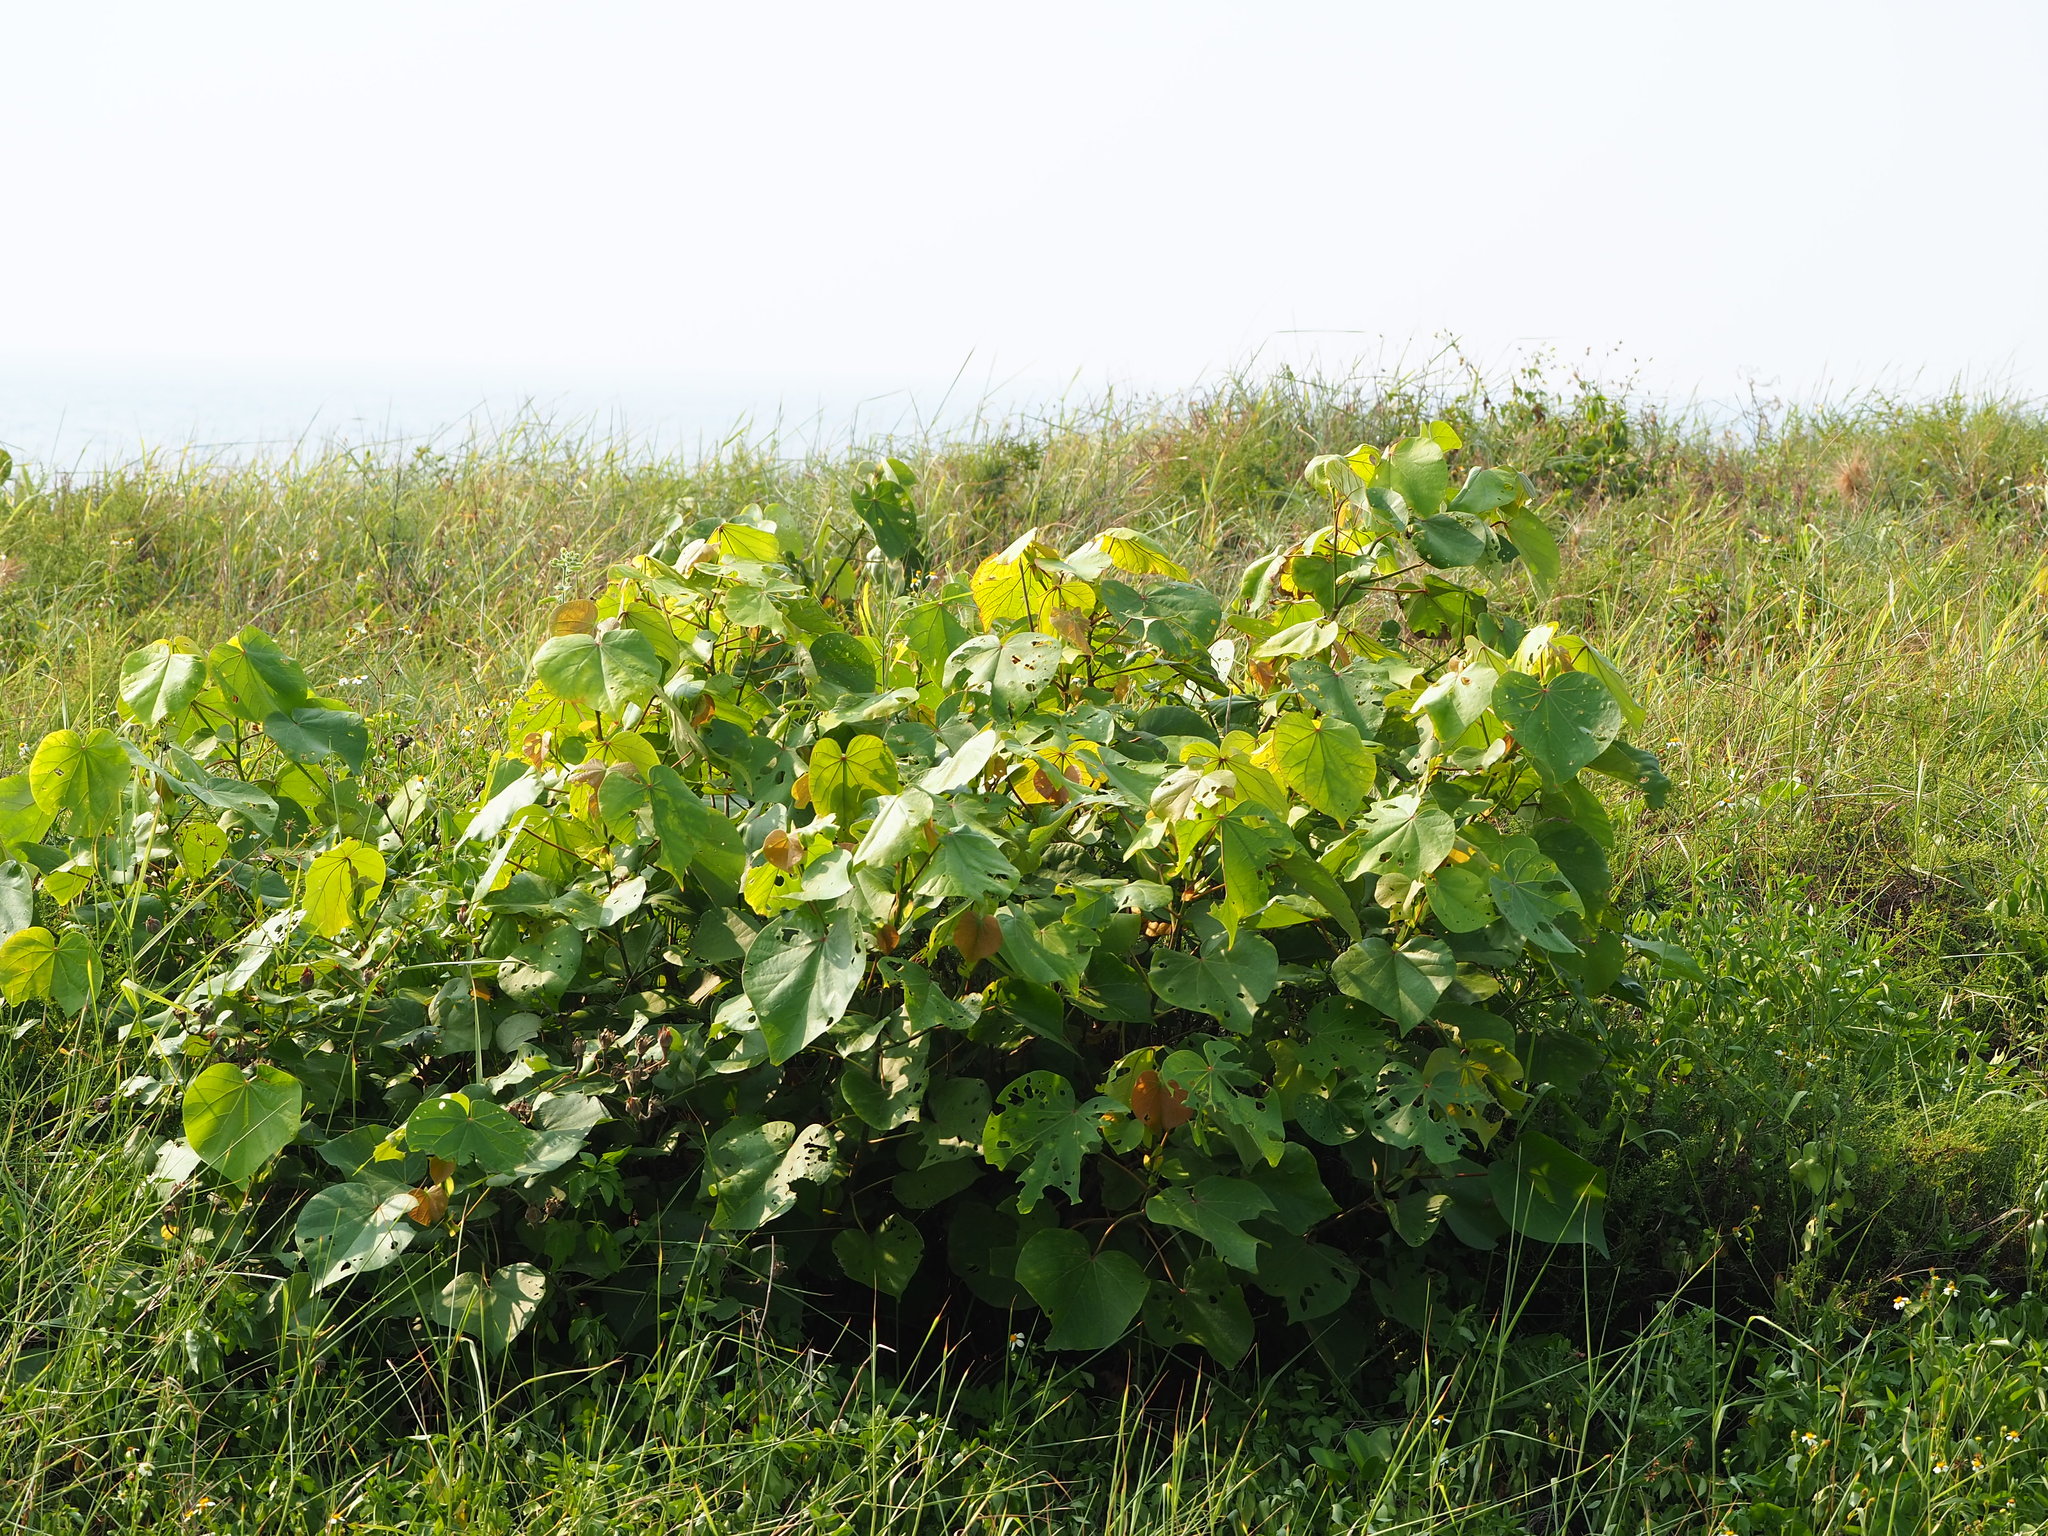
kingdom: Plantae
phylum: Tracheophyta
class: Magnoliopsida
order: Malvales
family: Malvaceae
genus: Talipariti
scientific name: Talipariti tiliaceum
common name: Sea hibiscus
